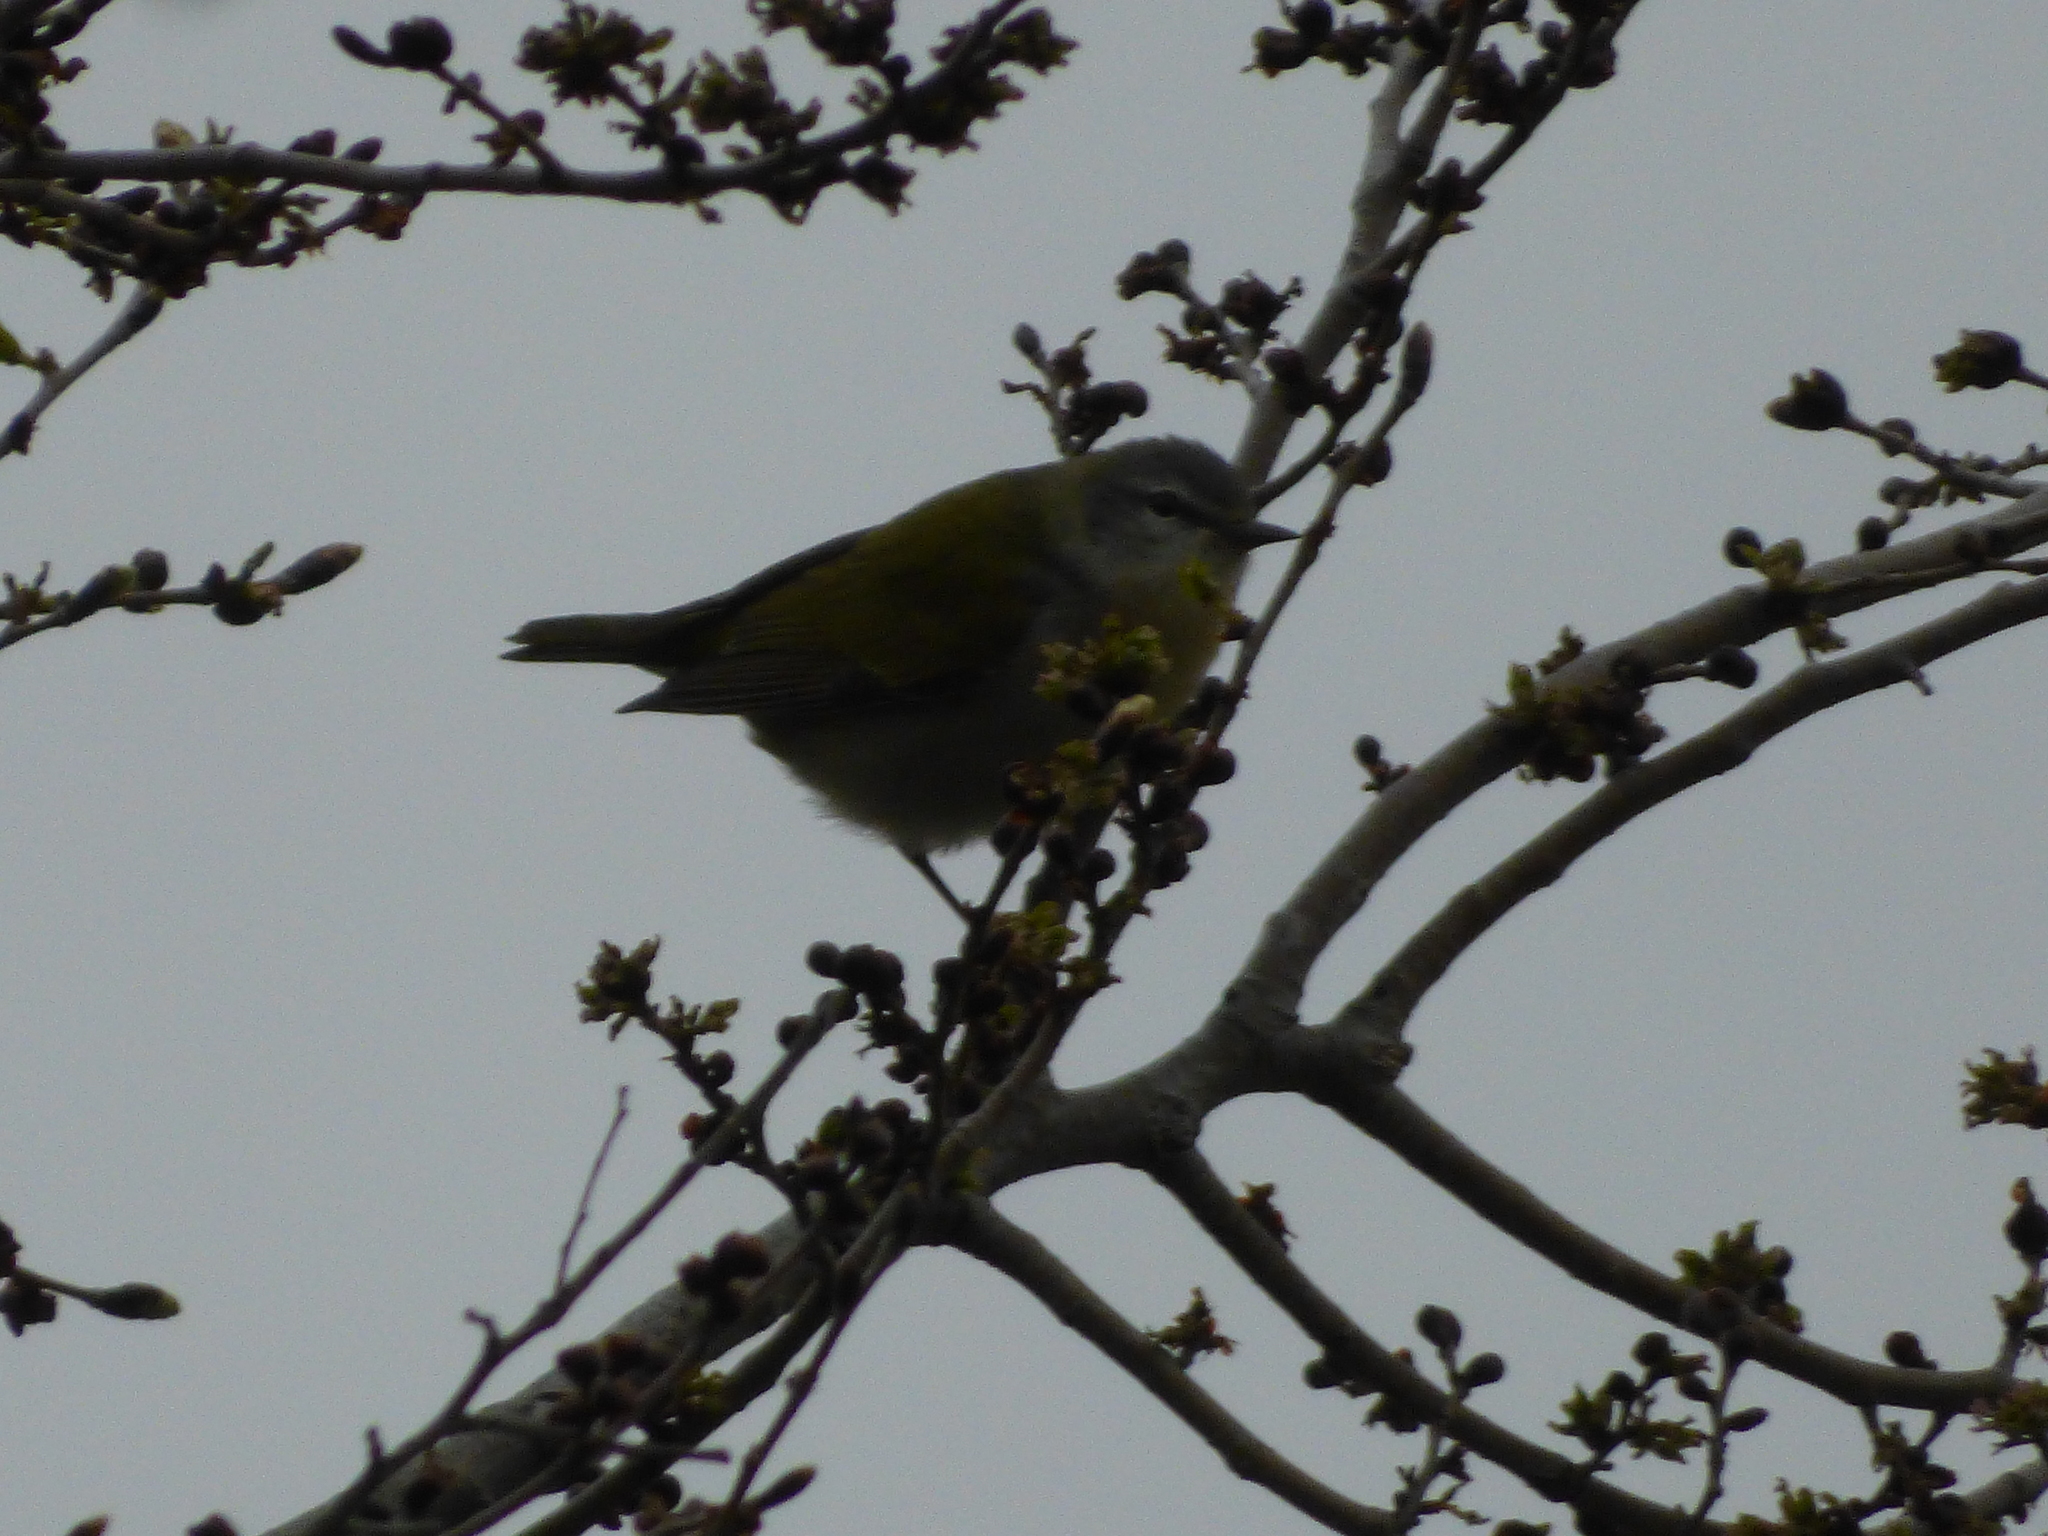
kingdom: Animalia
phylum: Chordata
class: Aves
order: Passeriformes
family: Parulidae
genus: Leiothlypis
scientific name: Leiothlypis peregrina
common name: Tennessee warbler
